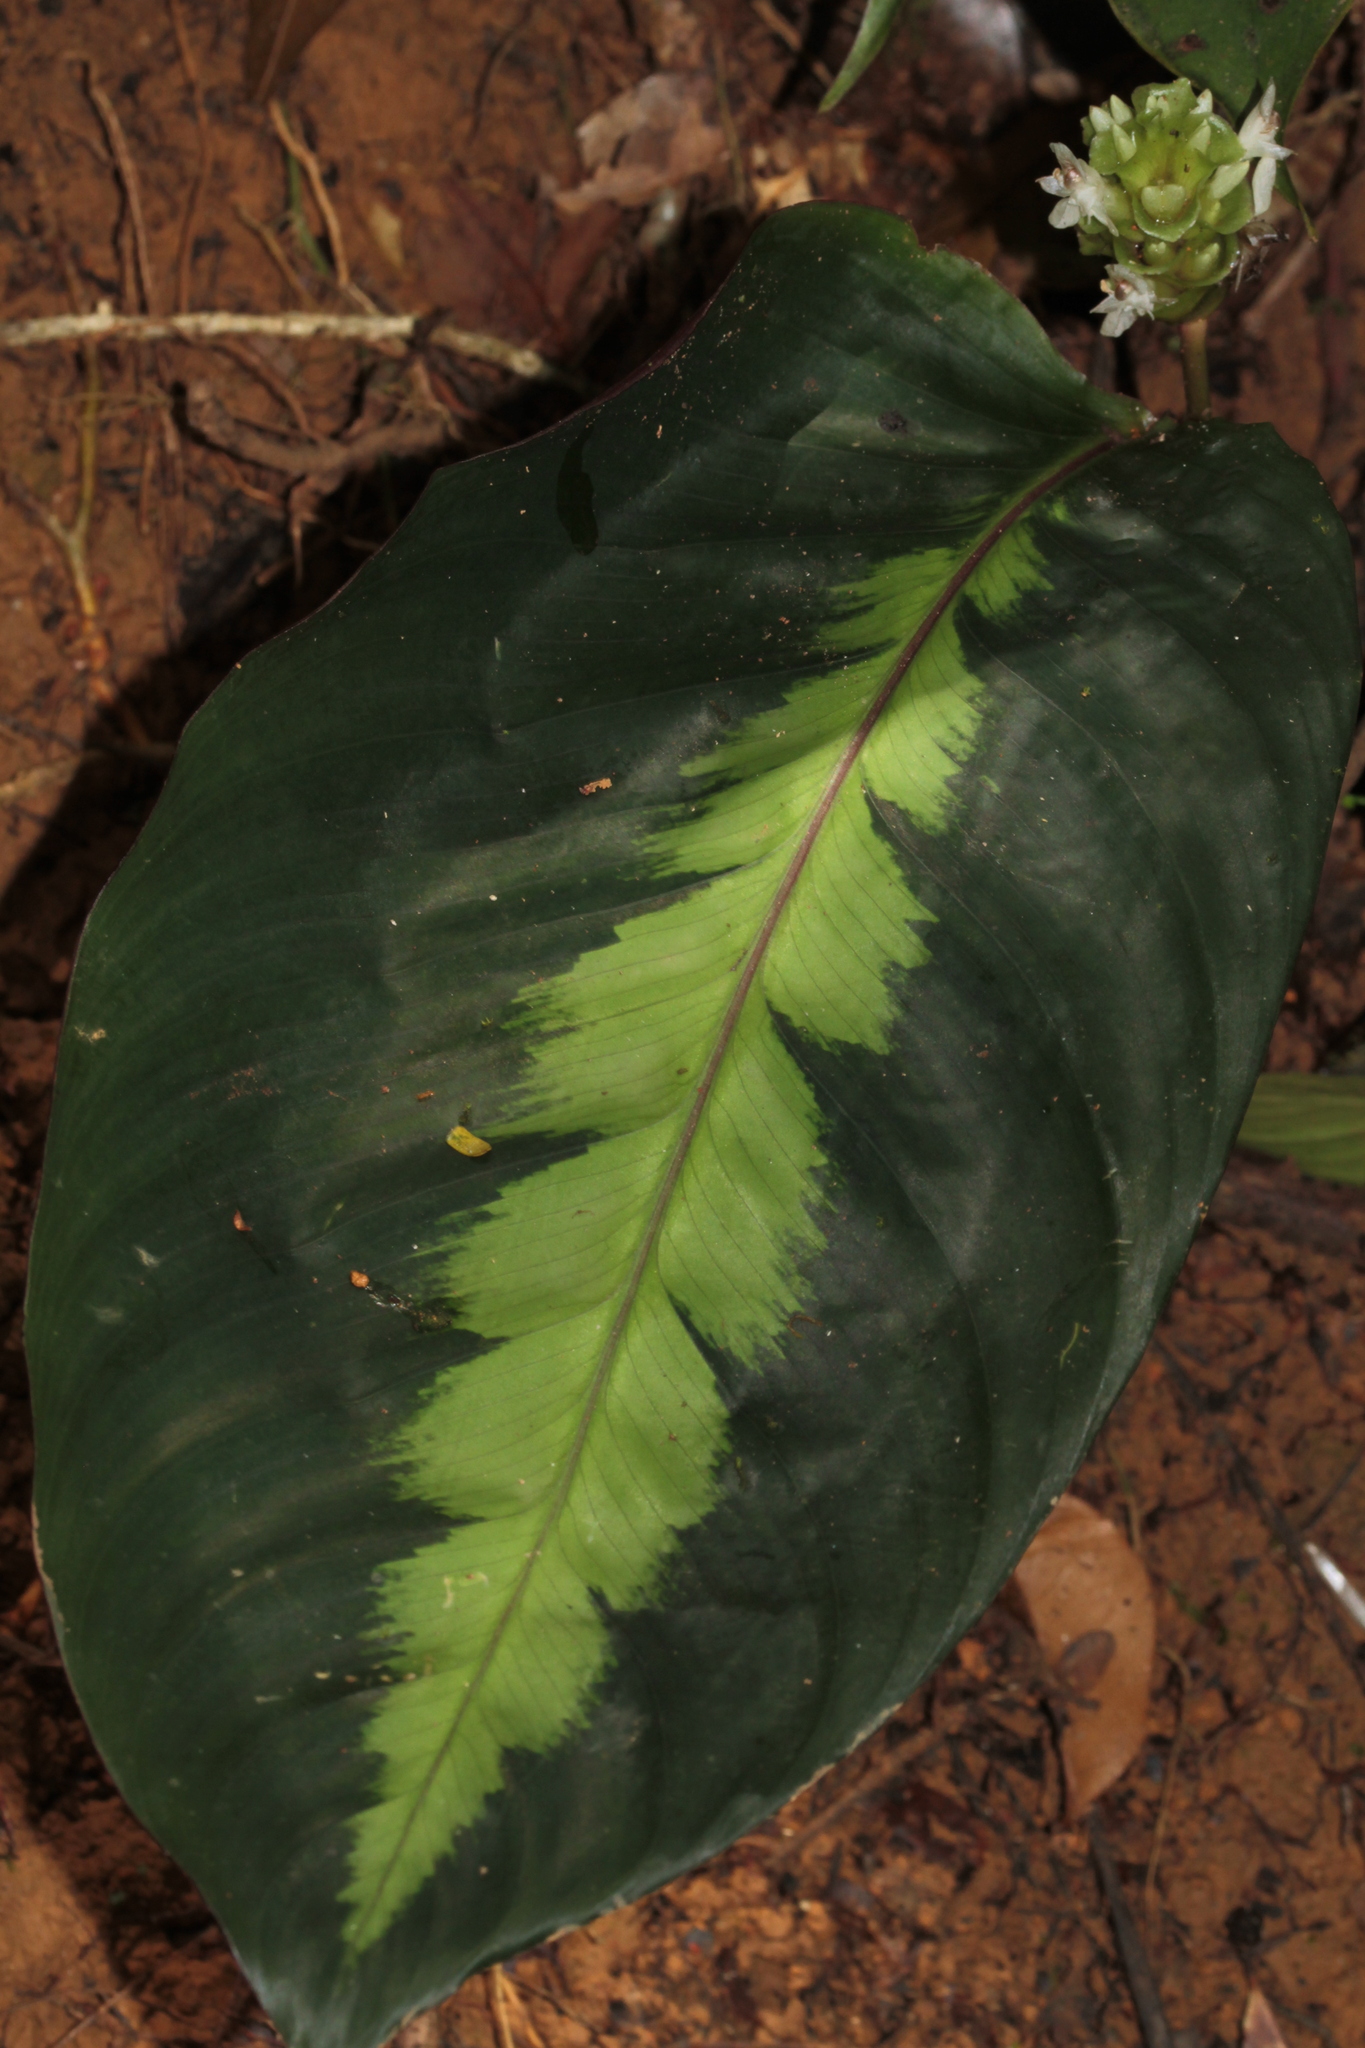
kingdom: Plantae
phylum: Tracheophyta
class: Liliopsida
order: Zingiberales
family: Marantaceae
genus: Goeppertia
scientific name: Goeppertia maasiorum
